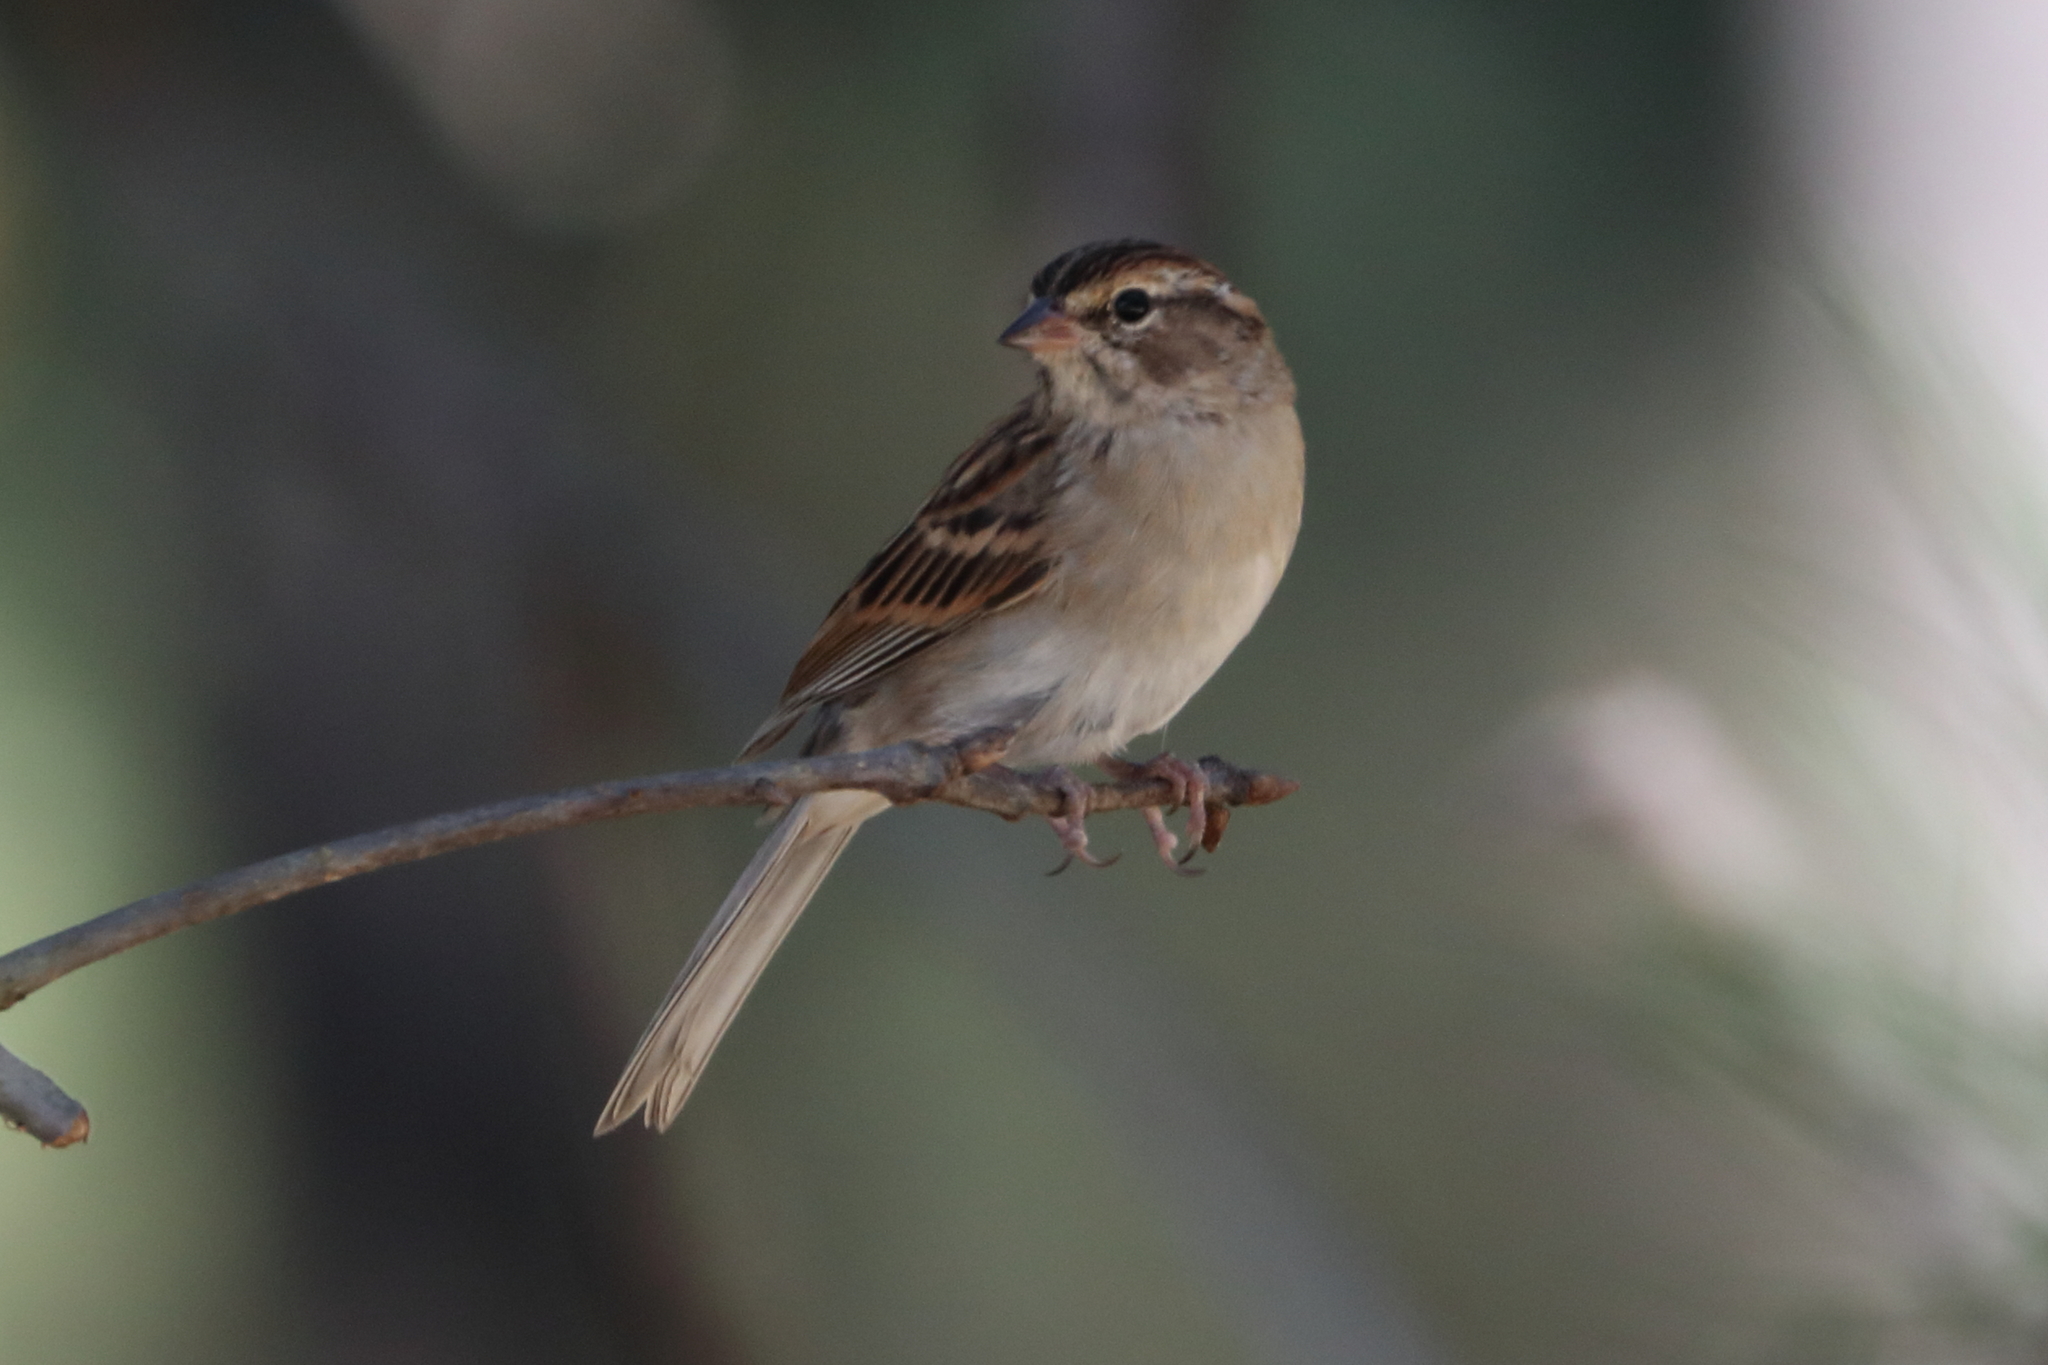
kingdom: Animalia
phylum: Chordata
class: Aves
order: Passeriformes
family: Passerellidae
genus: Spizella
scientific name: Spizella passerina
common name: Chipping sparrow
